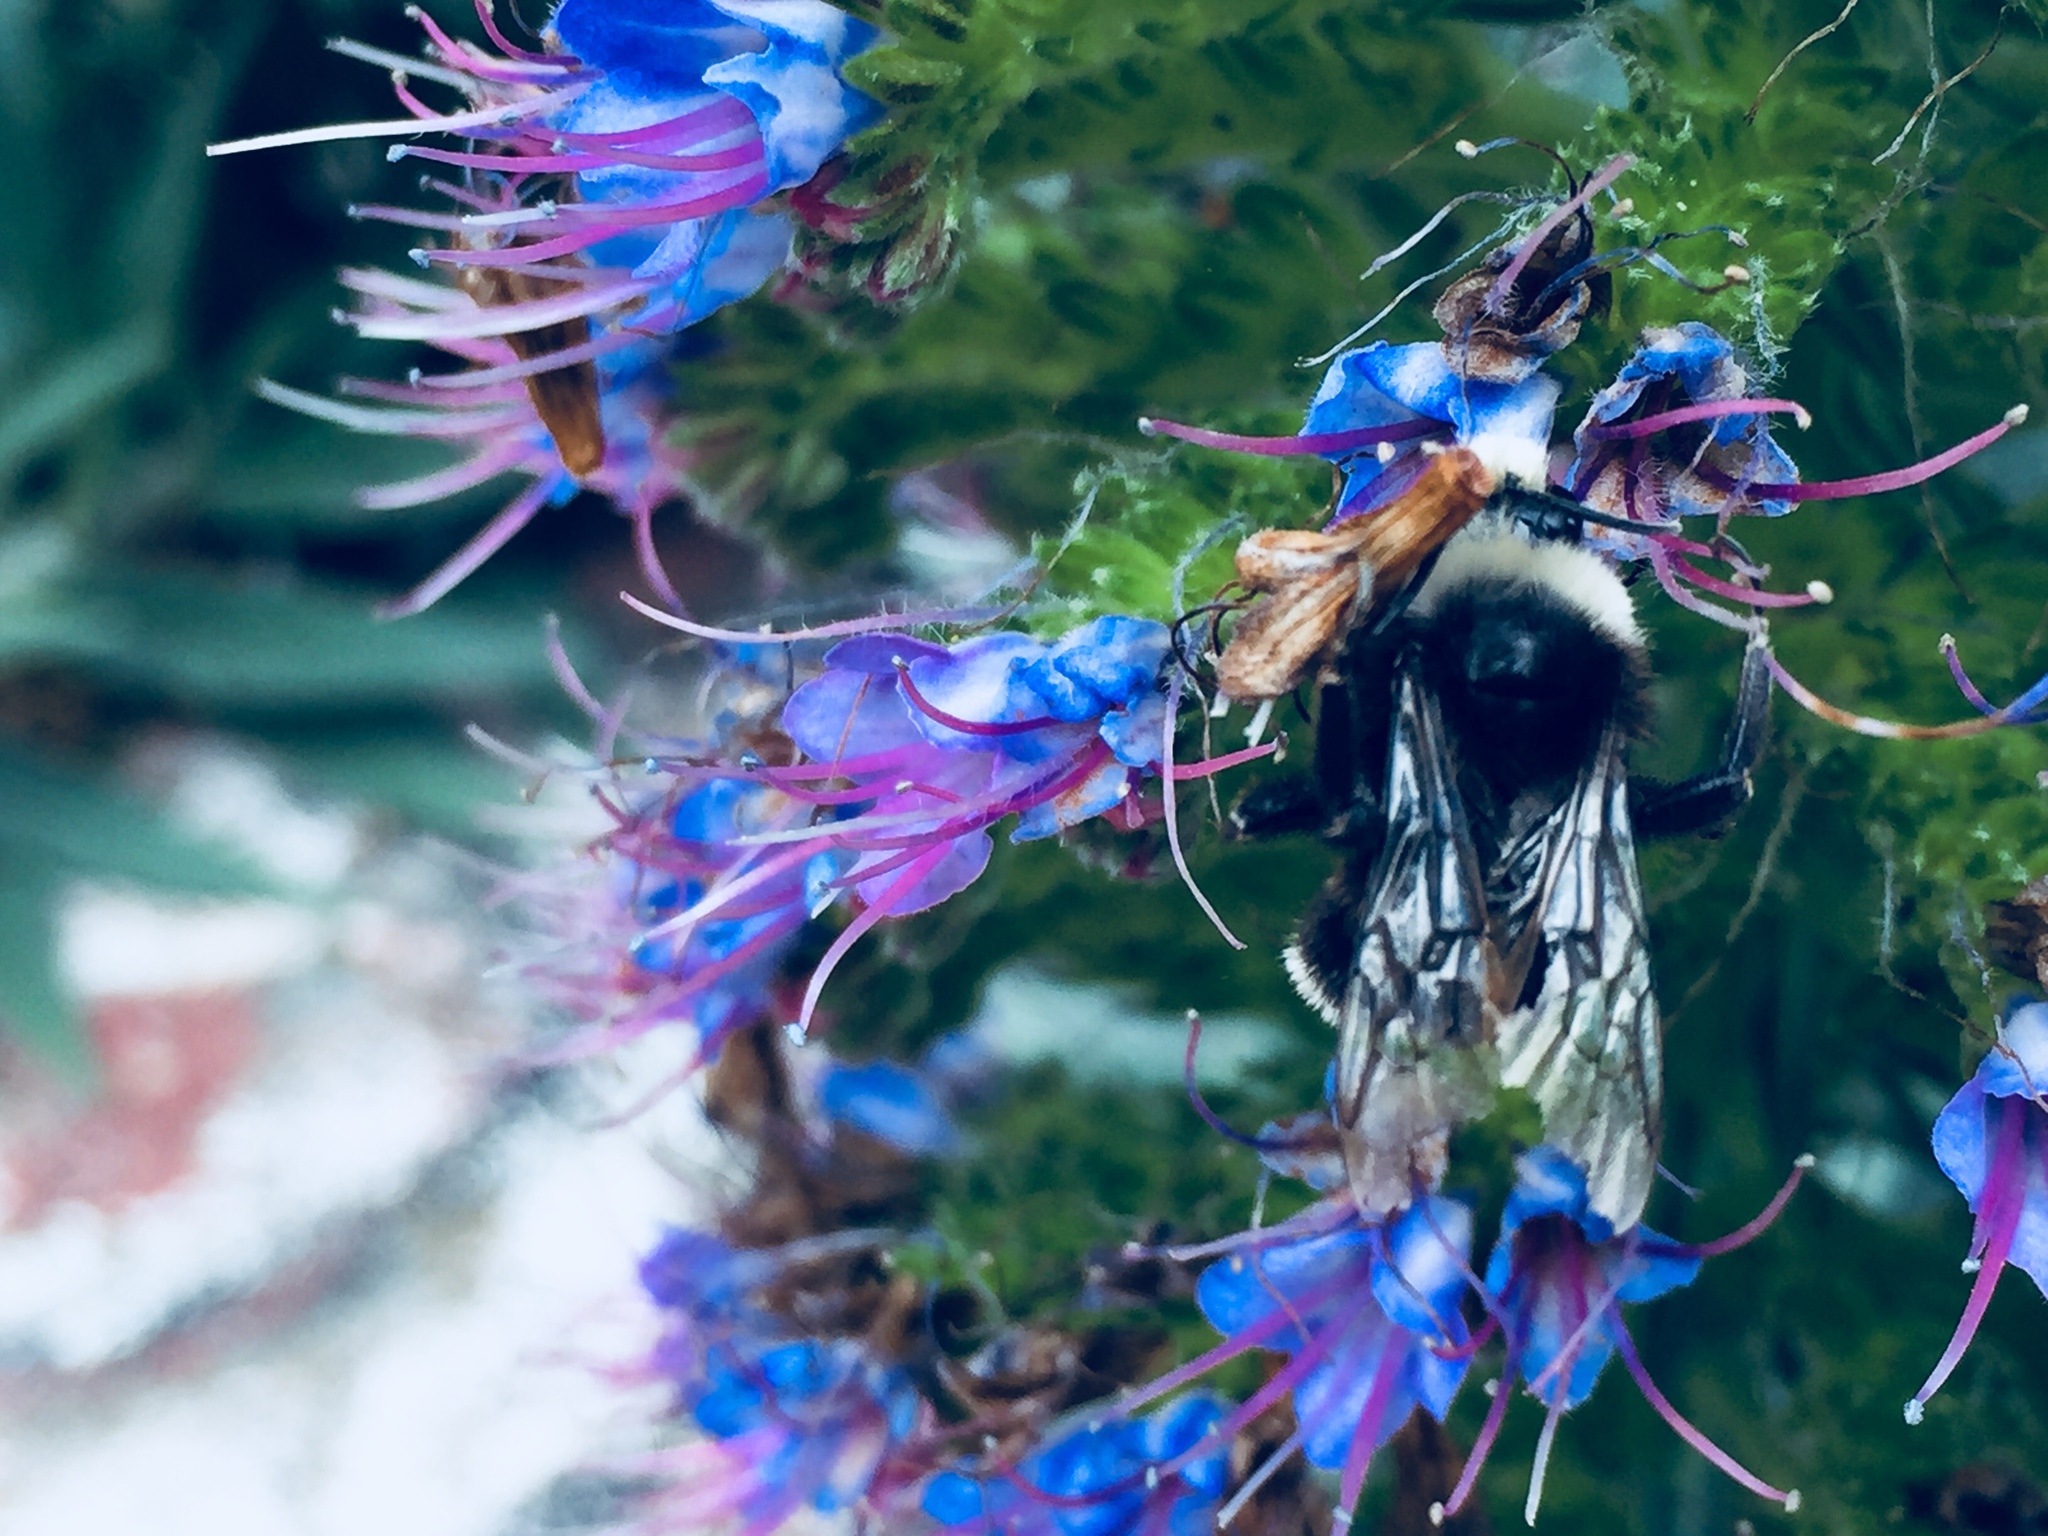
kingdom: Animalia
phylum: Arthropoda
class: Insecta
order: Hymenoptera
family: Apidae
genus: Bombus
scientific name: Bombus vosnesenskii
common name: Vosnesensky bumble bee
